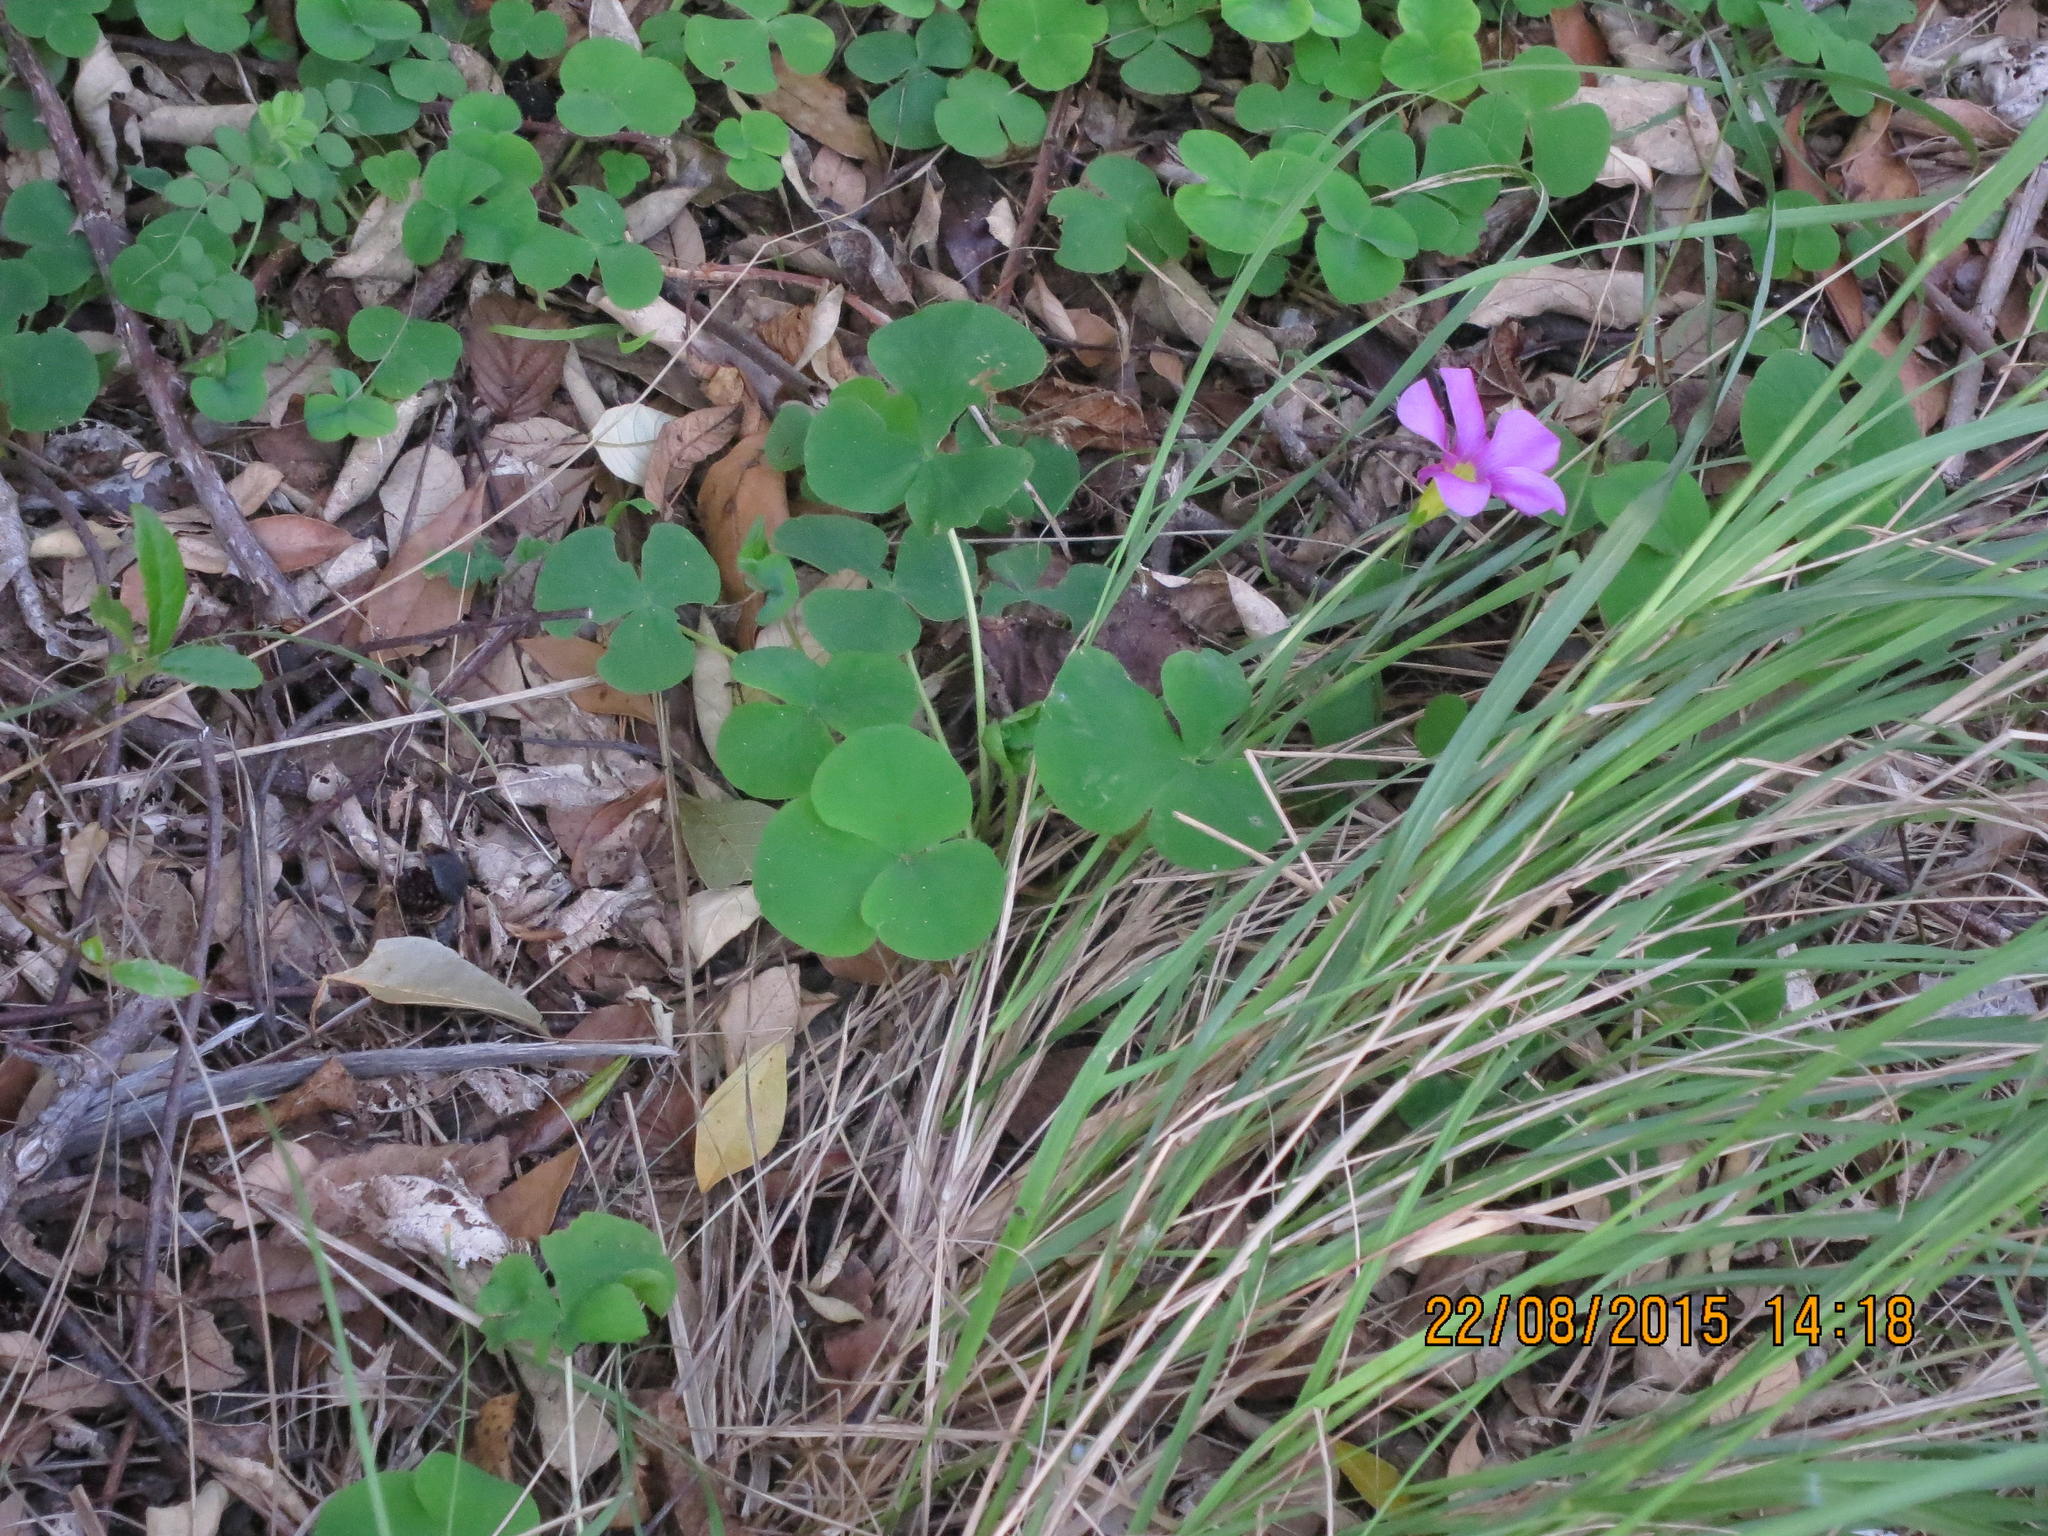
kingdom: Plantae
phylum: Tracheophyta
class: Magnoliopsida
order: Oxalidales
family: Oxalidaceae
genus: Oxalis
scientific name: Oxalis purpurea
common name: Purple woodsorrel
